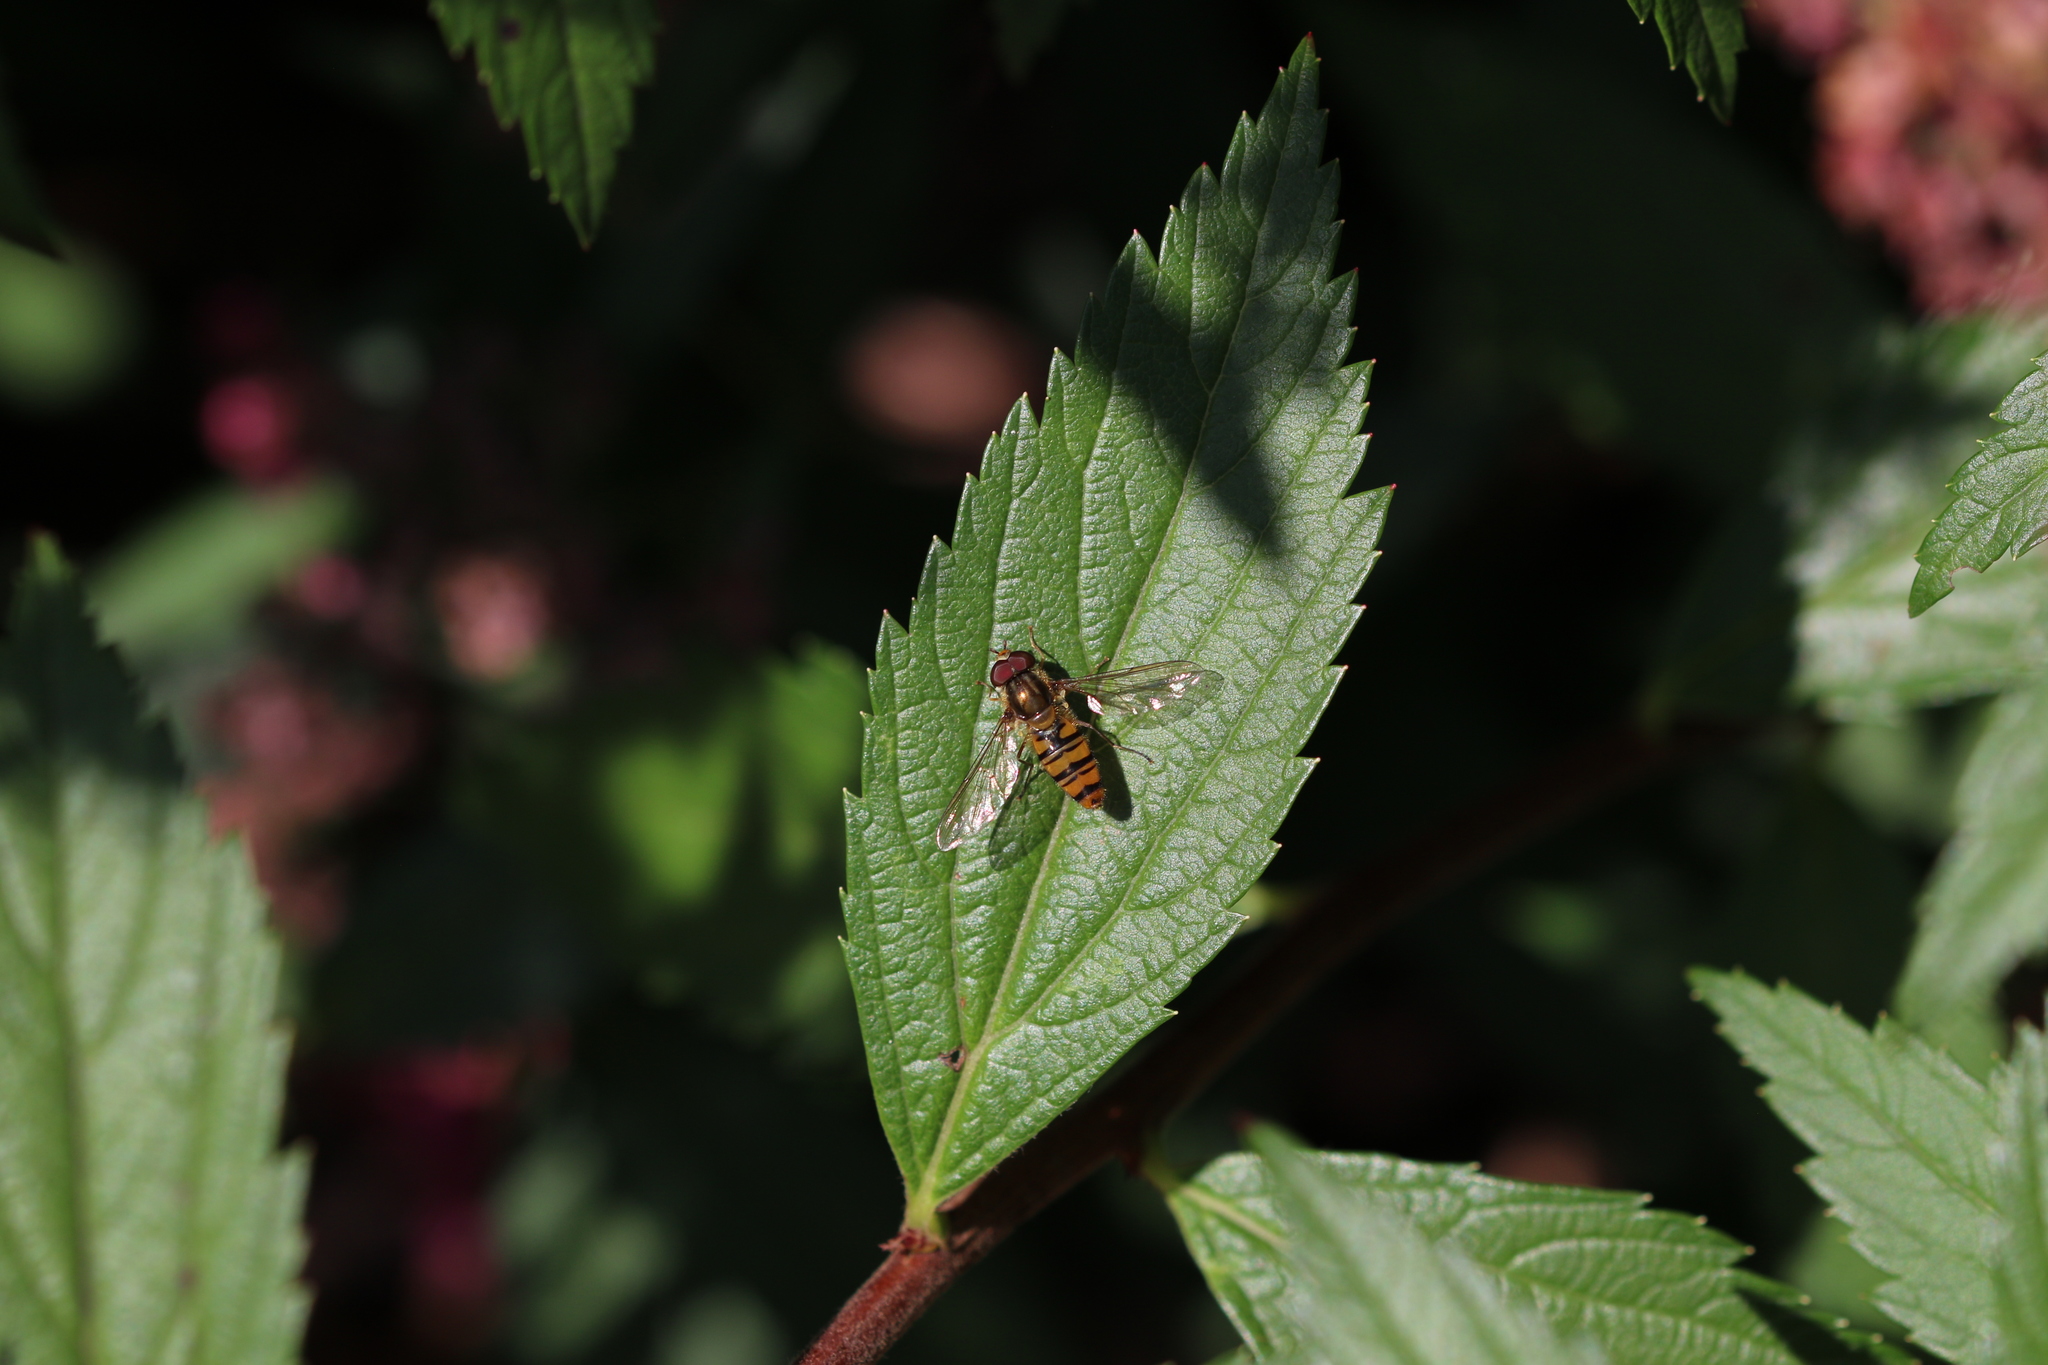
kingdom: Animalia
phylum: Arthropoda
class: Insecta
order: Diptera
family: Syrphidae
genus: Episyrphus
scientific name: Episyrphus balteatus
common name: Marmalade hoverfly
